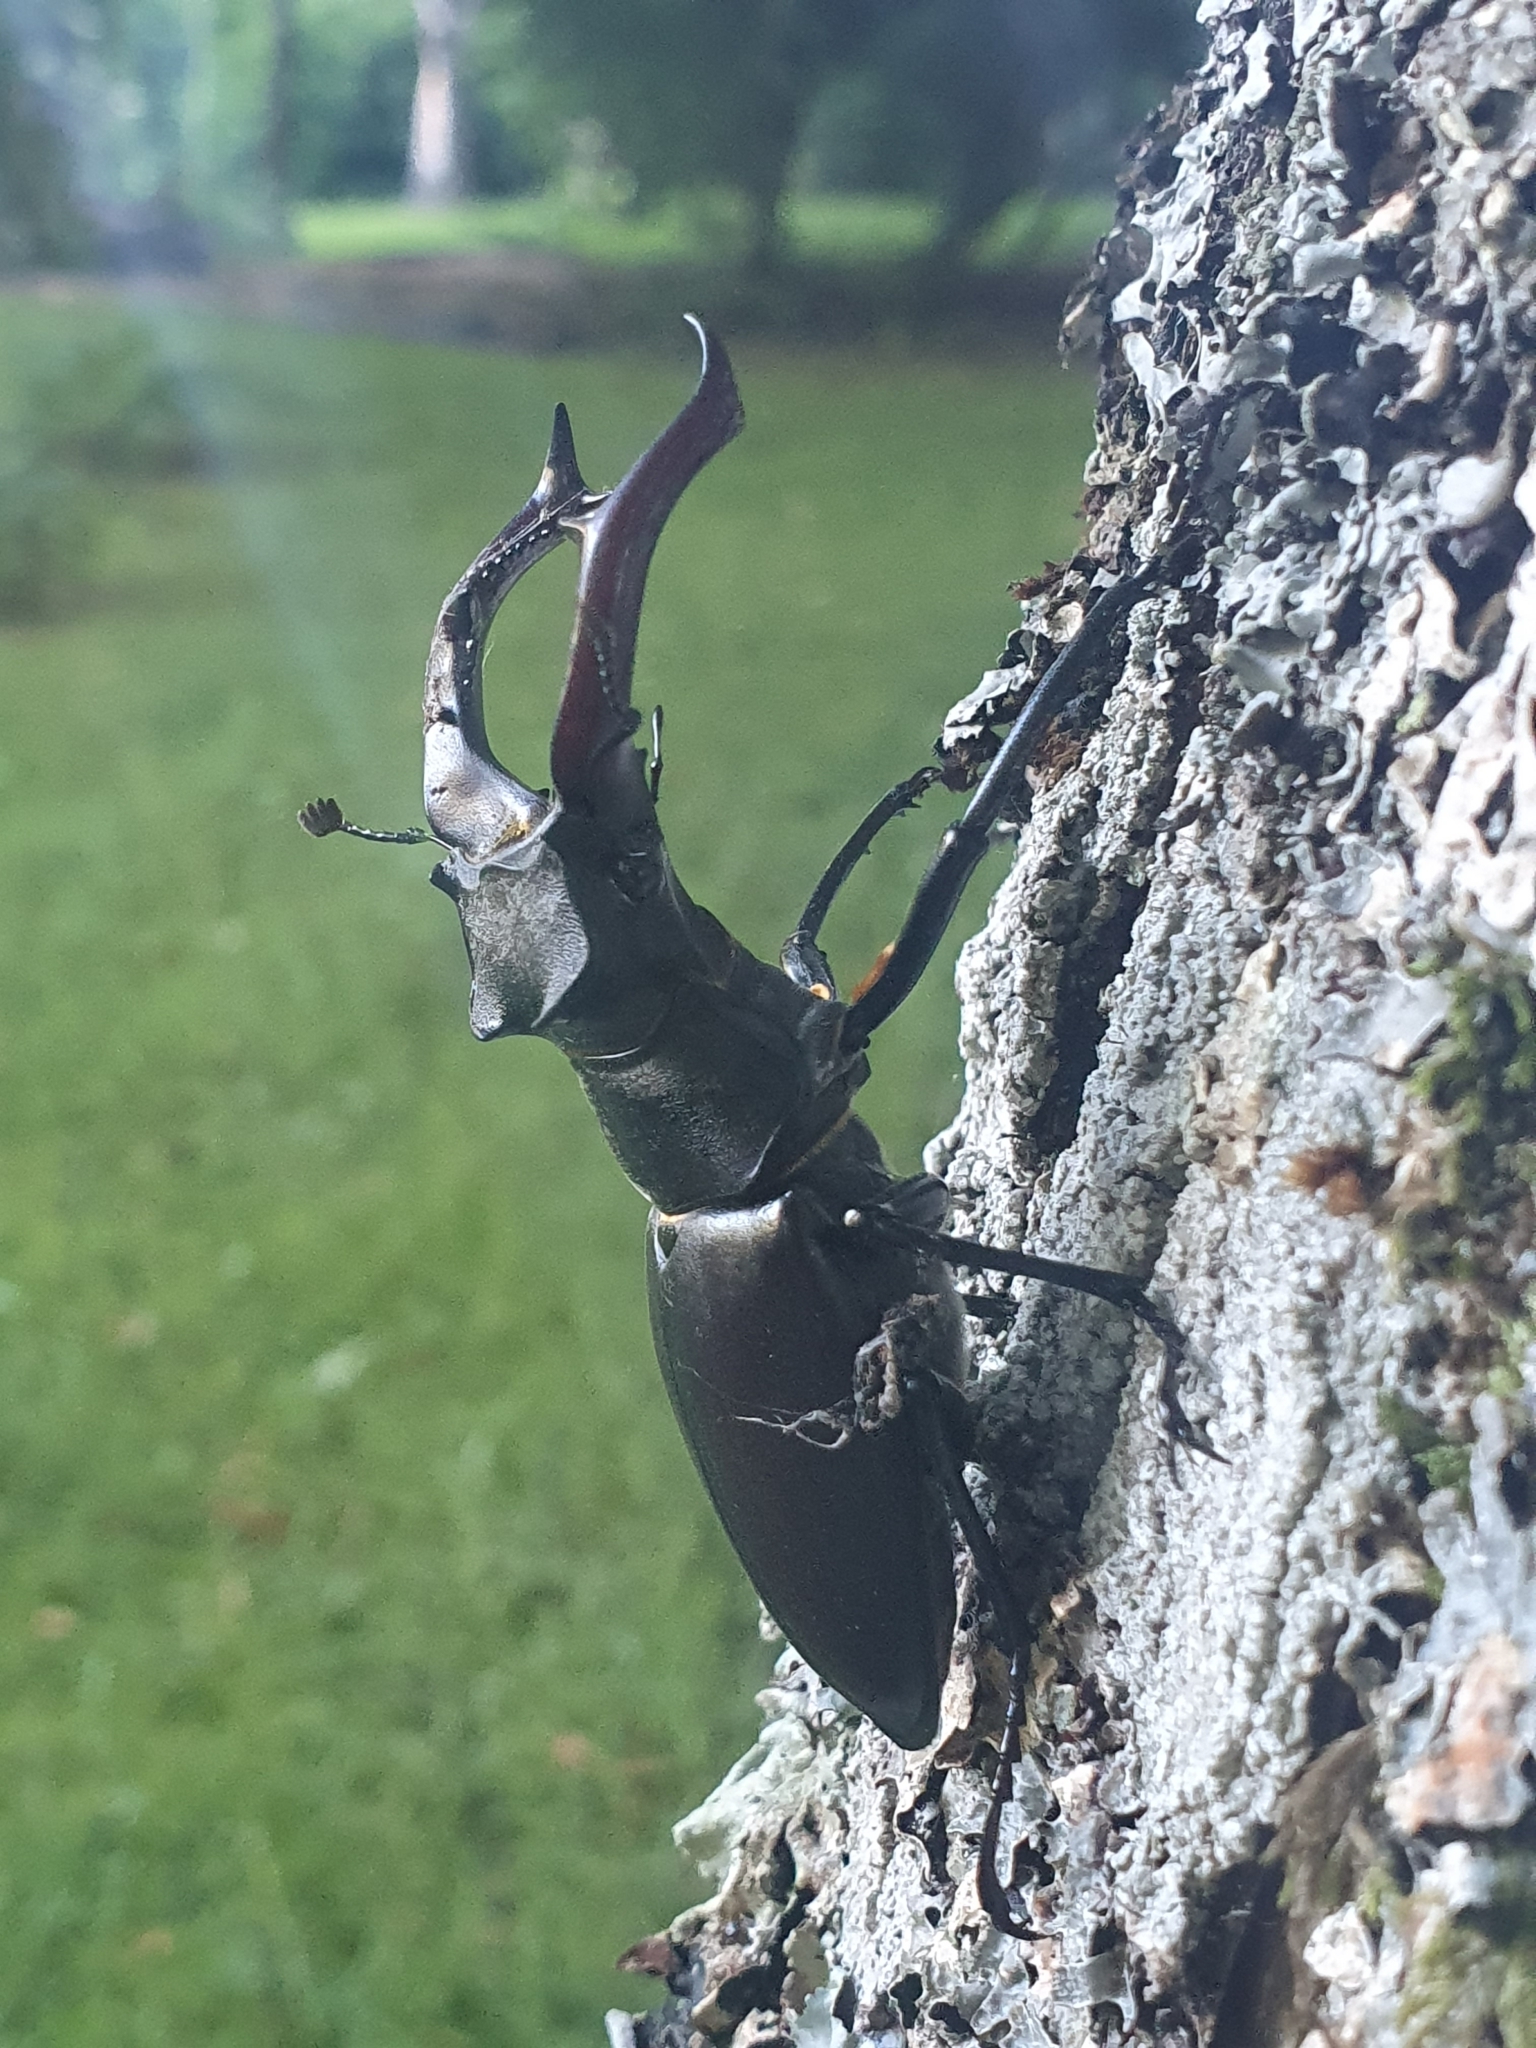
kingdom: Animalia
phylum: Arthropoda
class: Insecta
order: Coleoptera
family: Lucanidae
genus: Lucanus
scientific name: Lucanus cervus
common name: Stag beetle
